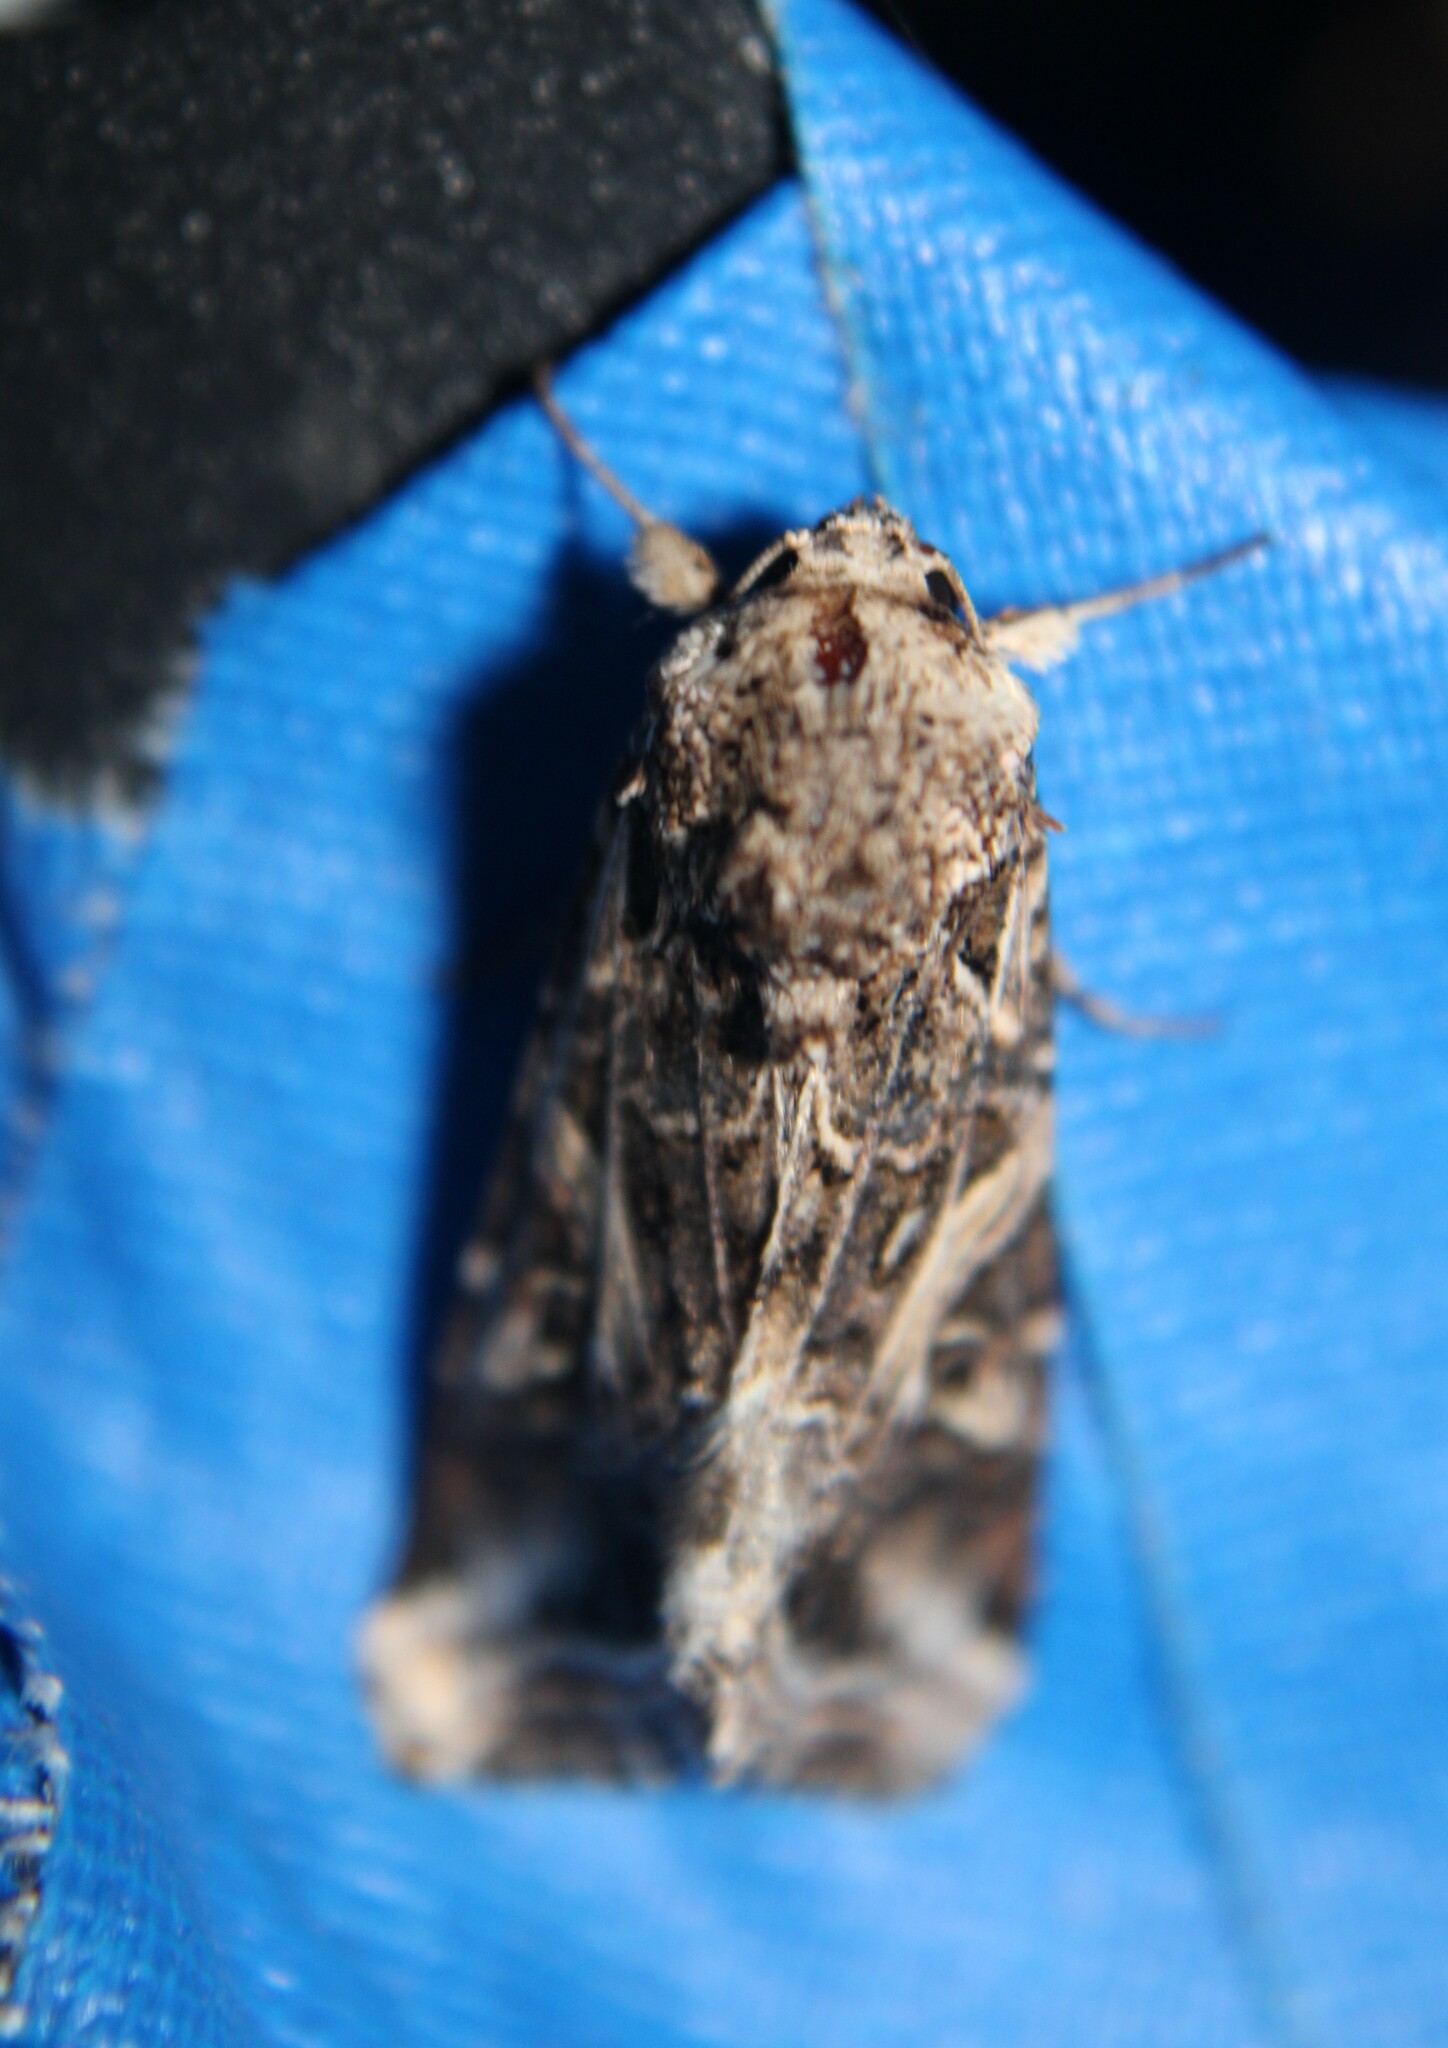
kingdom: Animalia
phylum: Arthropoda
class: Insecta
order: Lepidoptera
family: Noctuidae
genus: Spodoptera
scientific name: Spodoptera ornithogalli
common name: Yellow-striped armyworm
